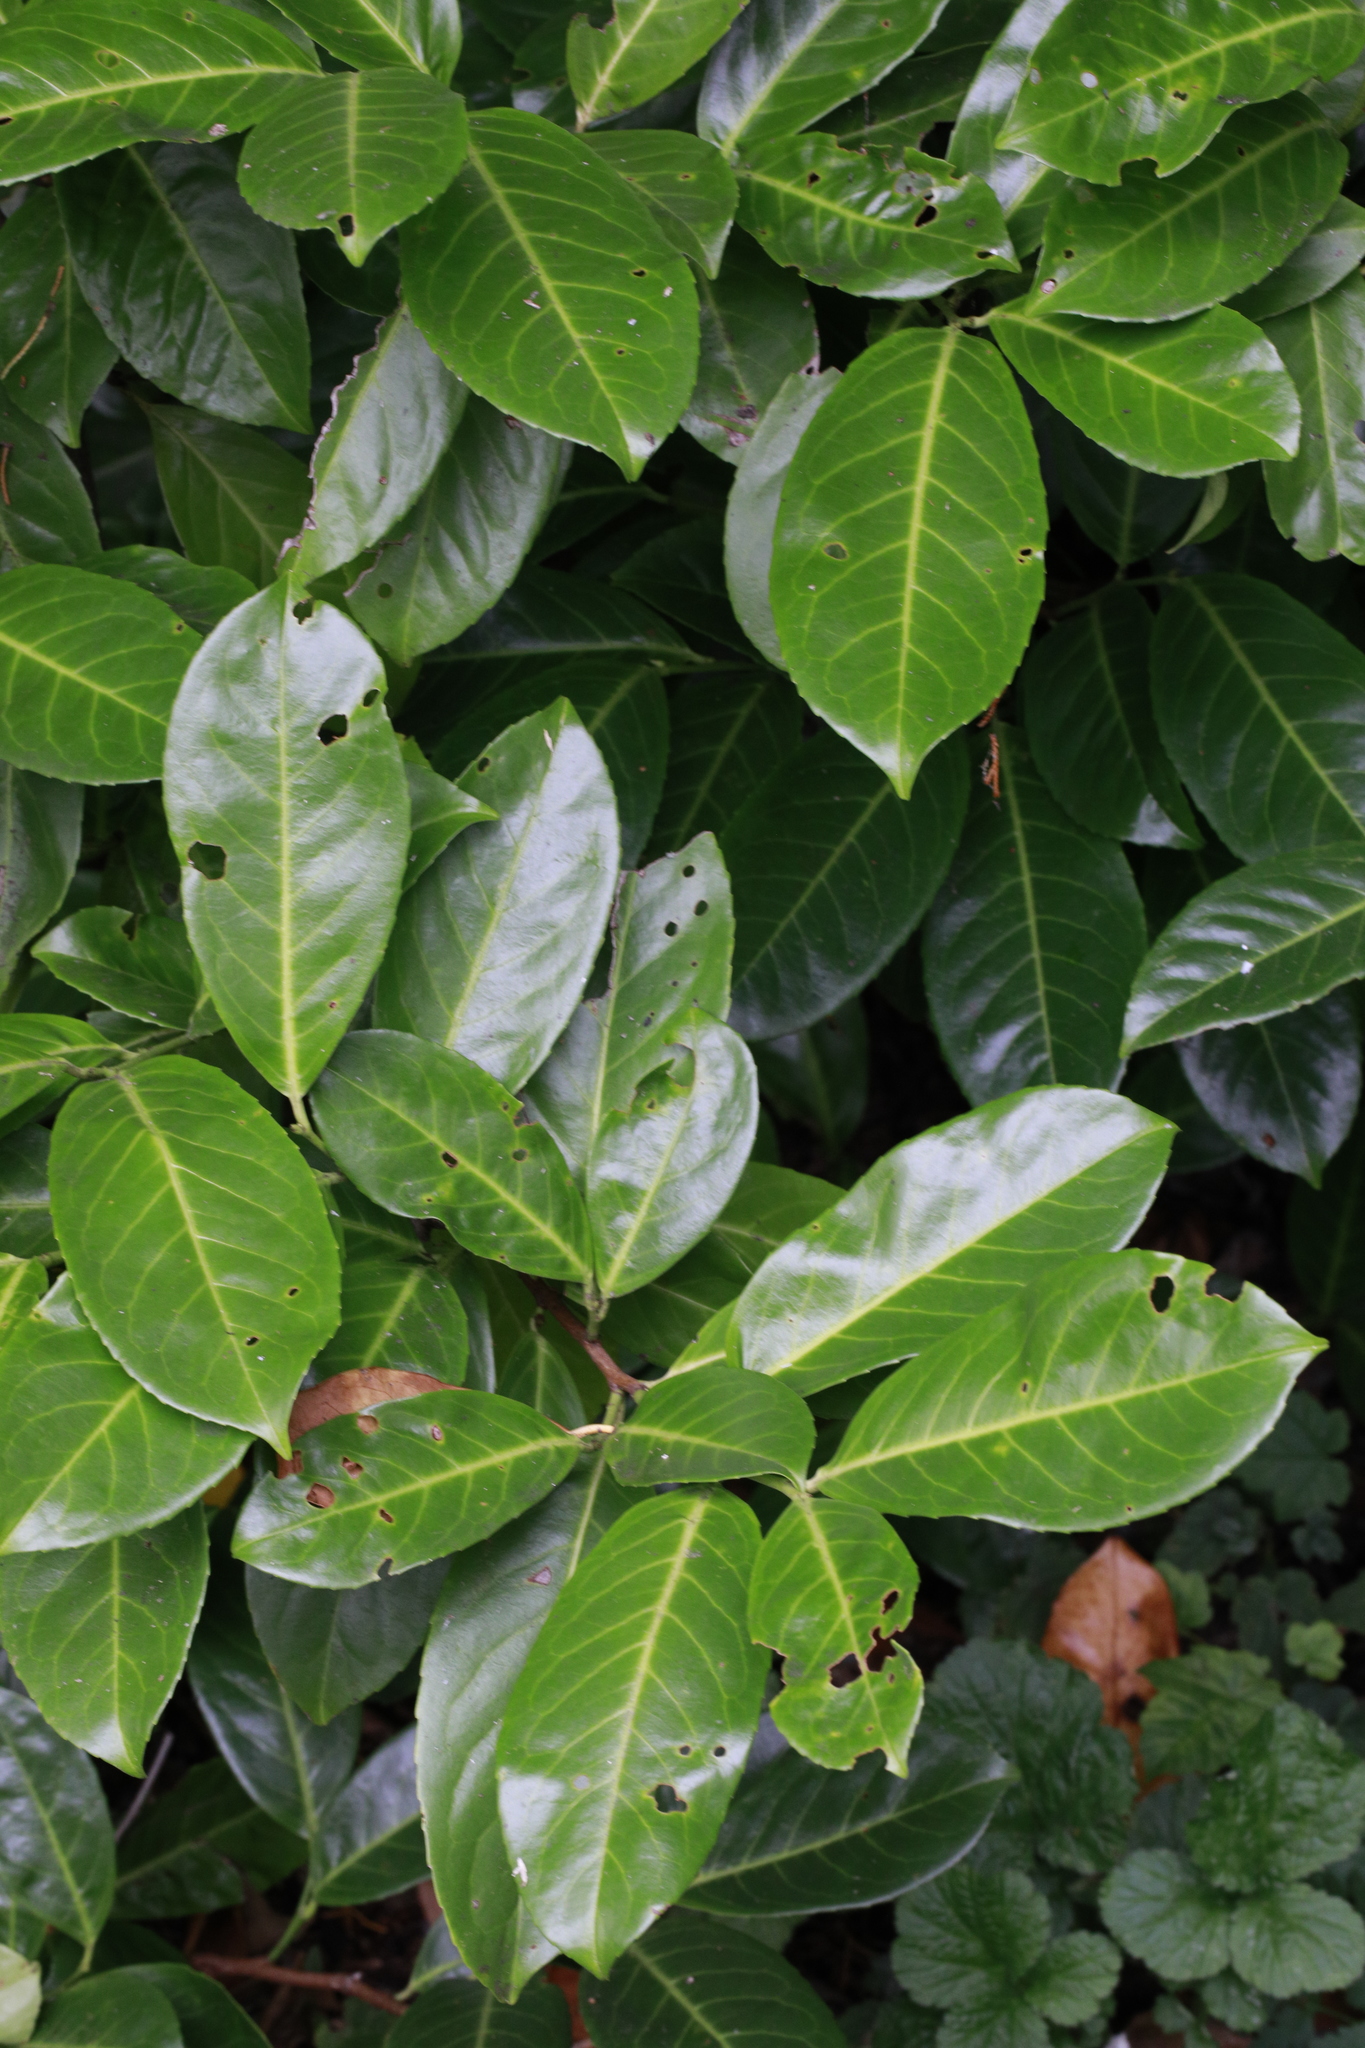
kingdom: Plantae
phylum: Tracheophyta
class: Magnoliopsida
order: Rosales
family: Rosaceae
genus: Prunus
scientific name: Prunus laurocerasus
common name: Cherry laurel
